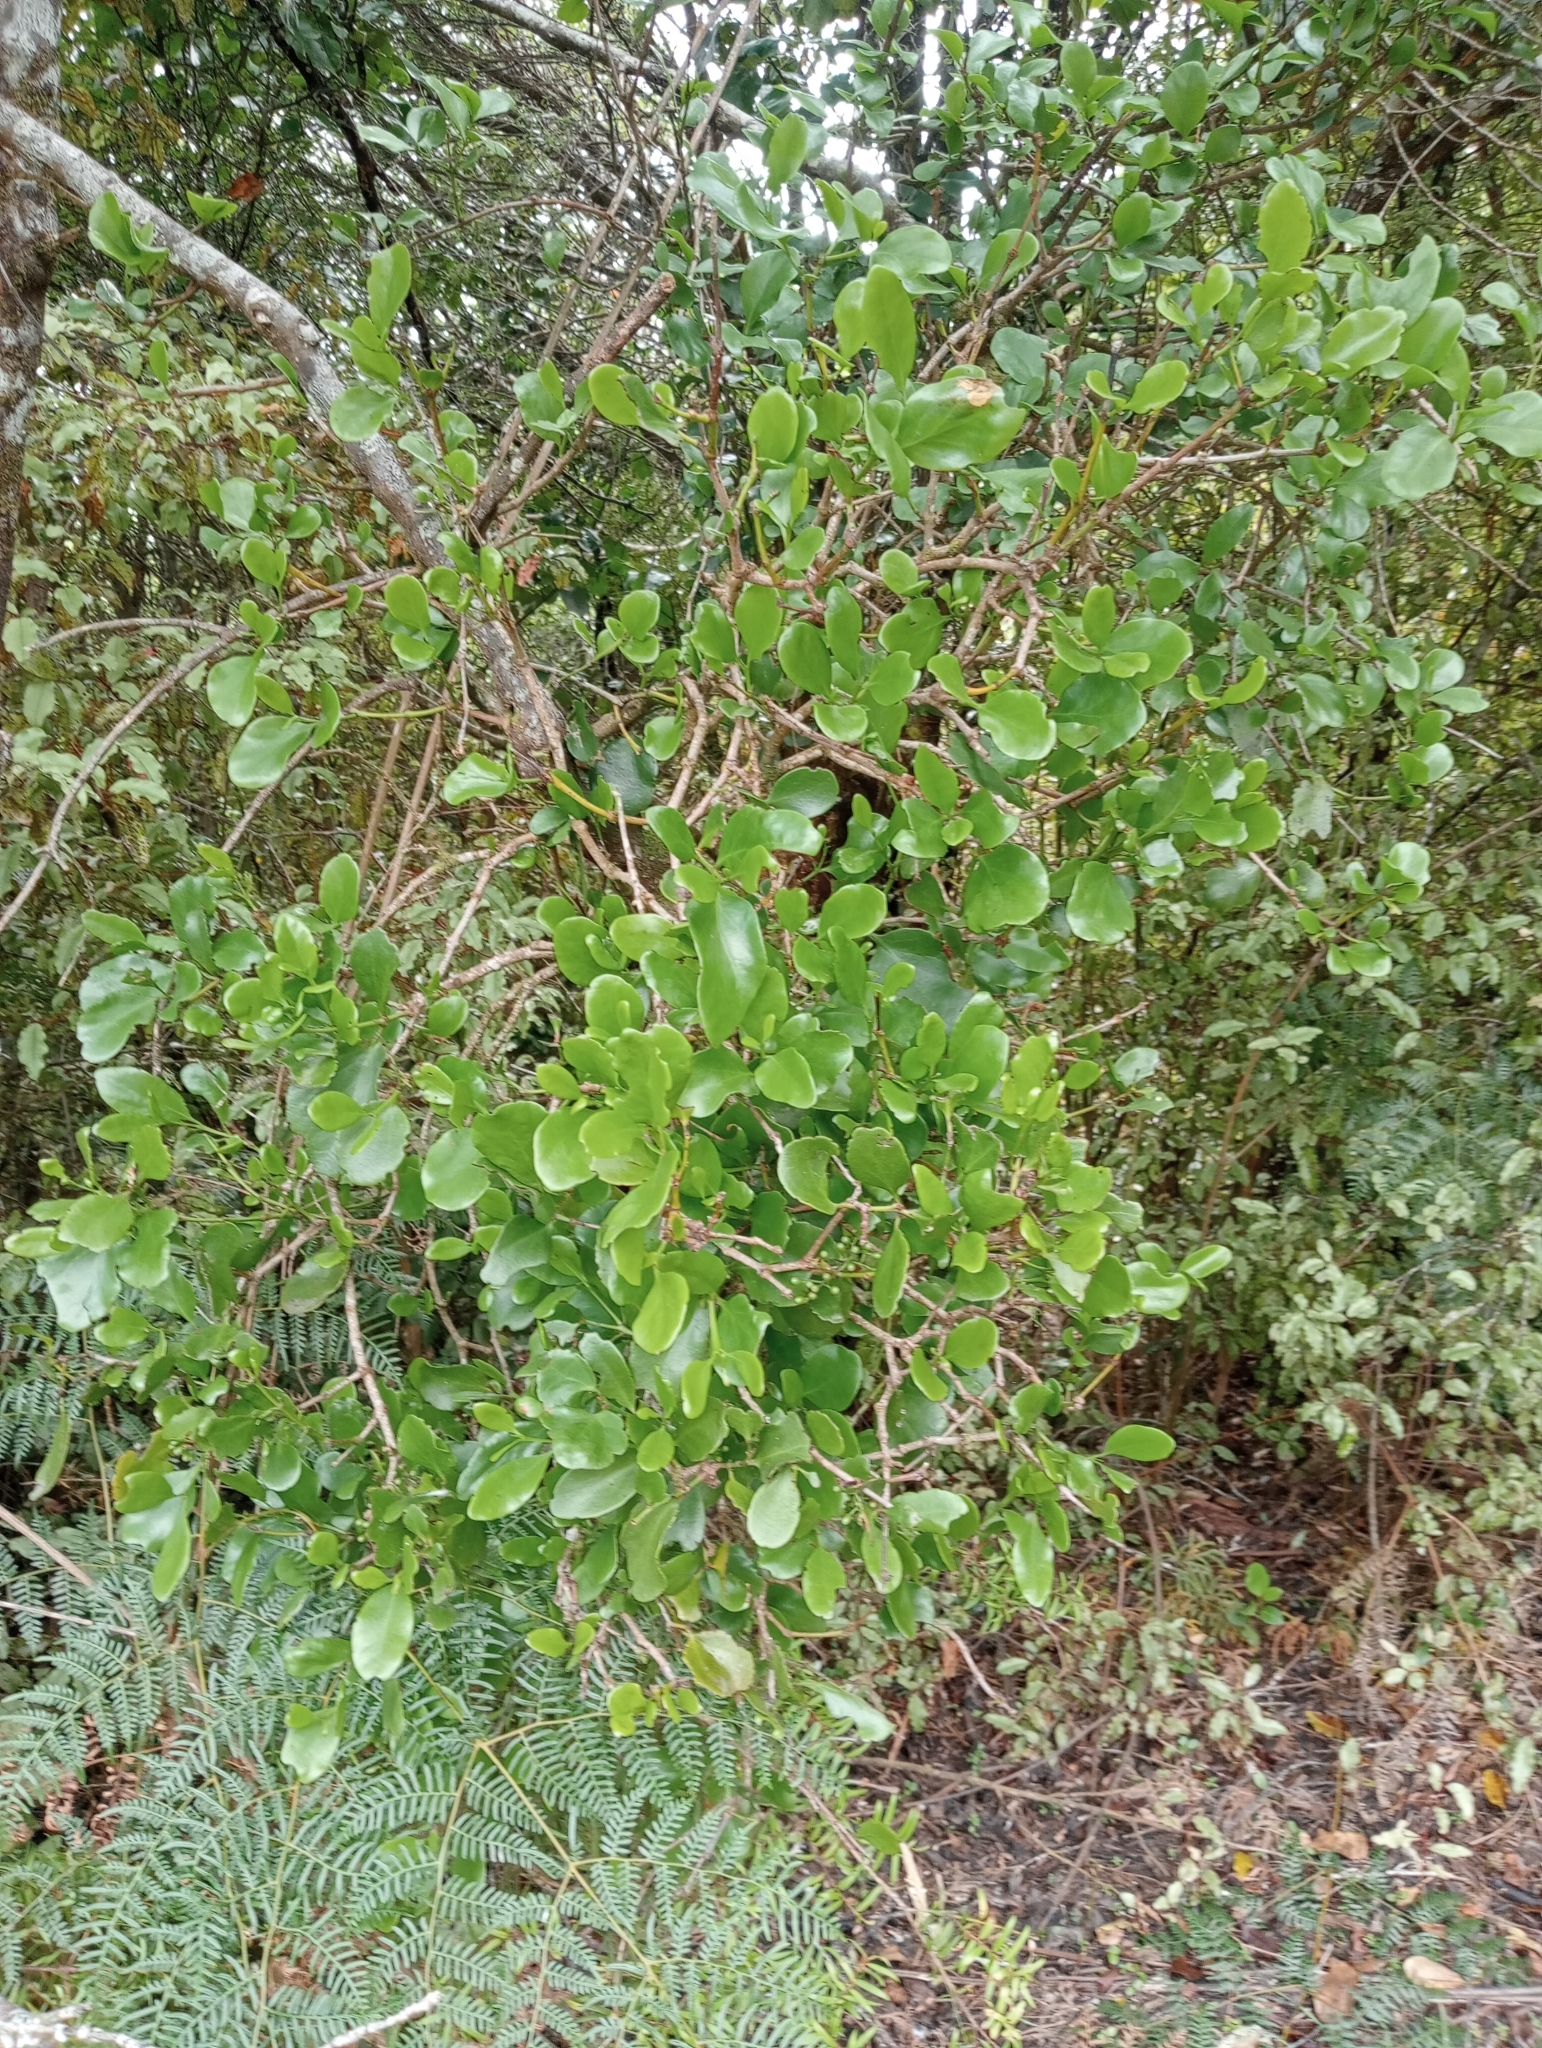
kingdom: Plantae
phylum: Tracheophyta
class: Magnoliopsida
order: Santalales
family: Loranthaceae
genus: Ileostylus
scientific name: Ileostylus micranthus
